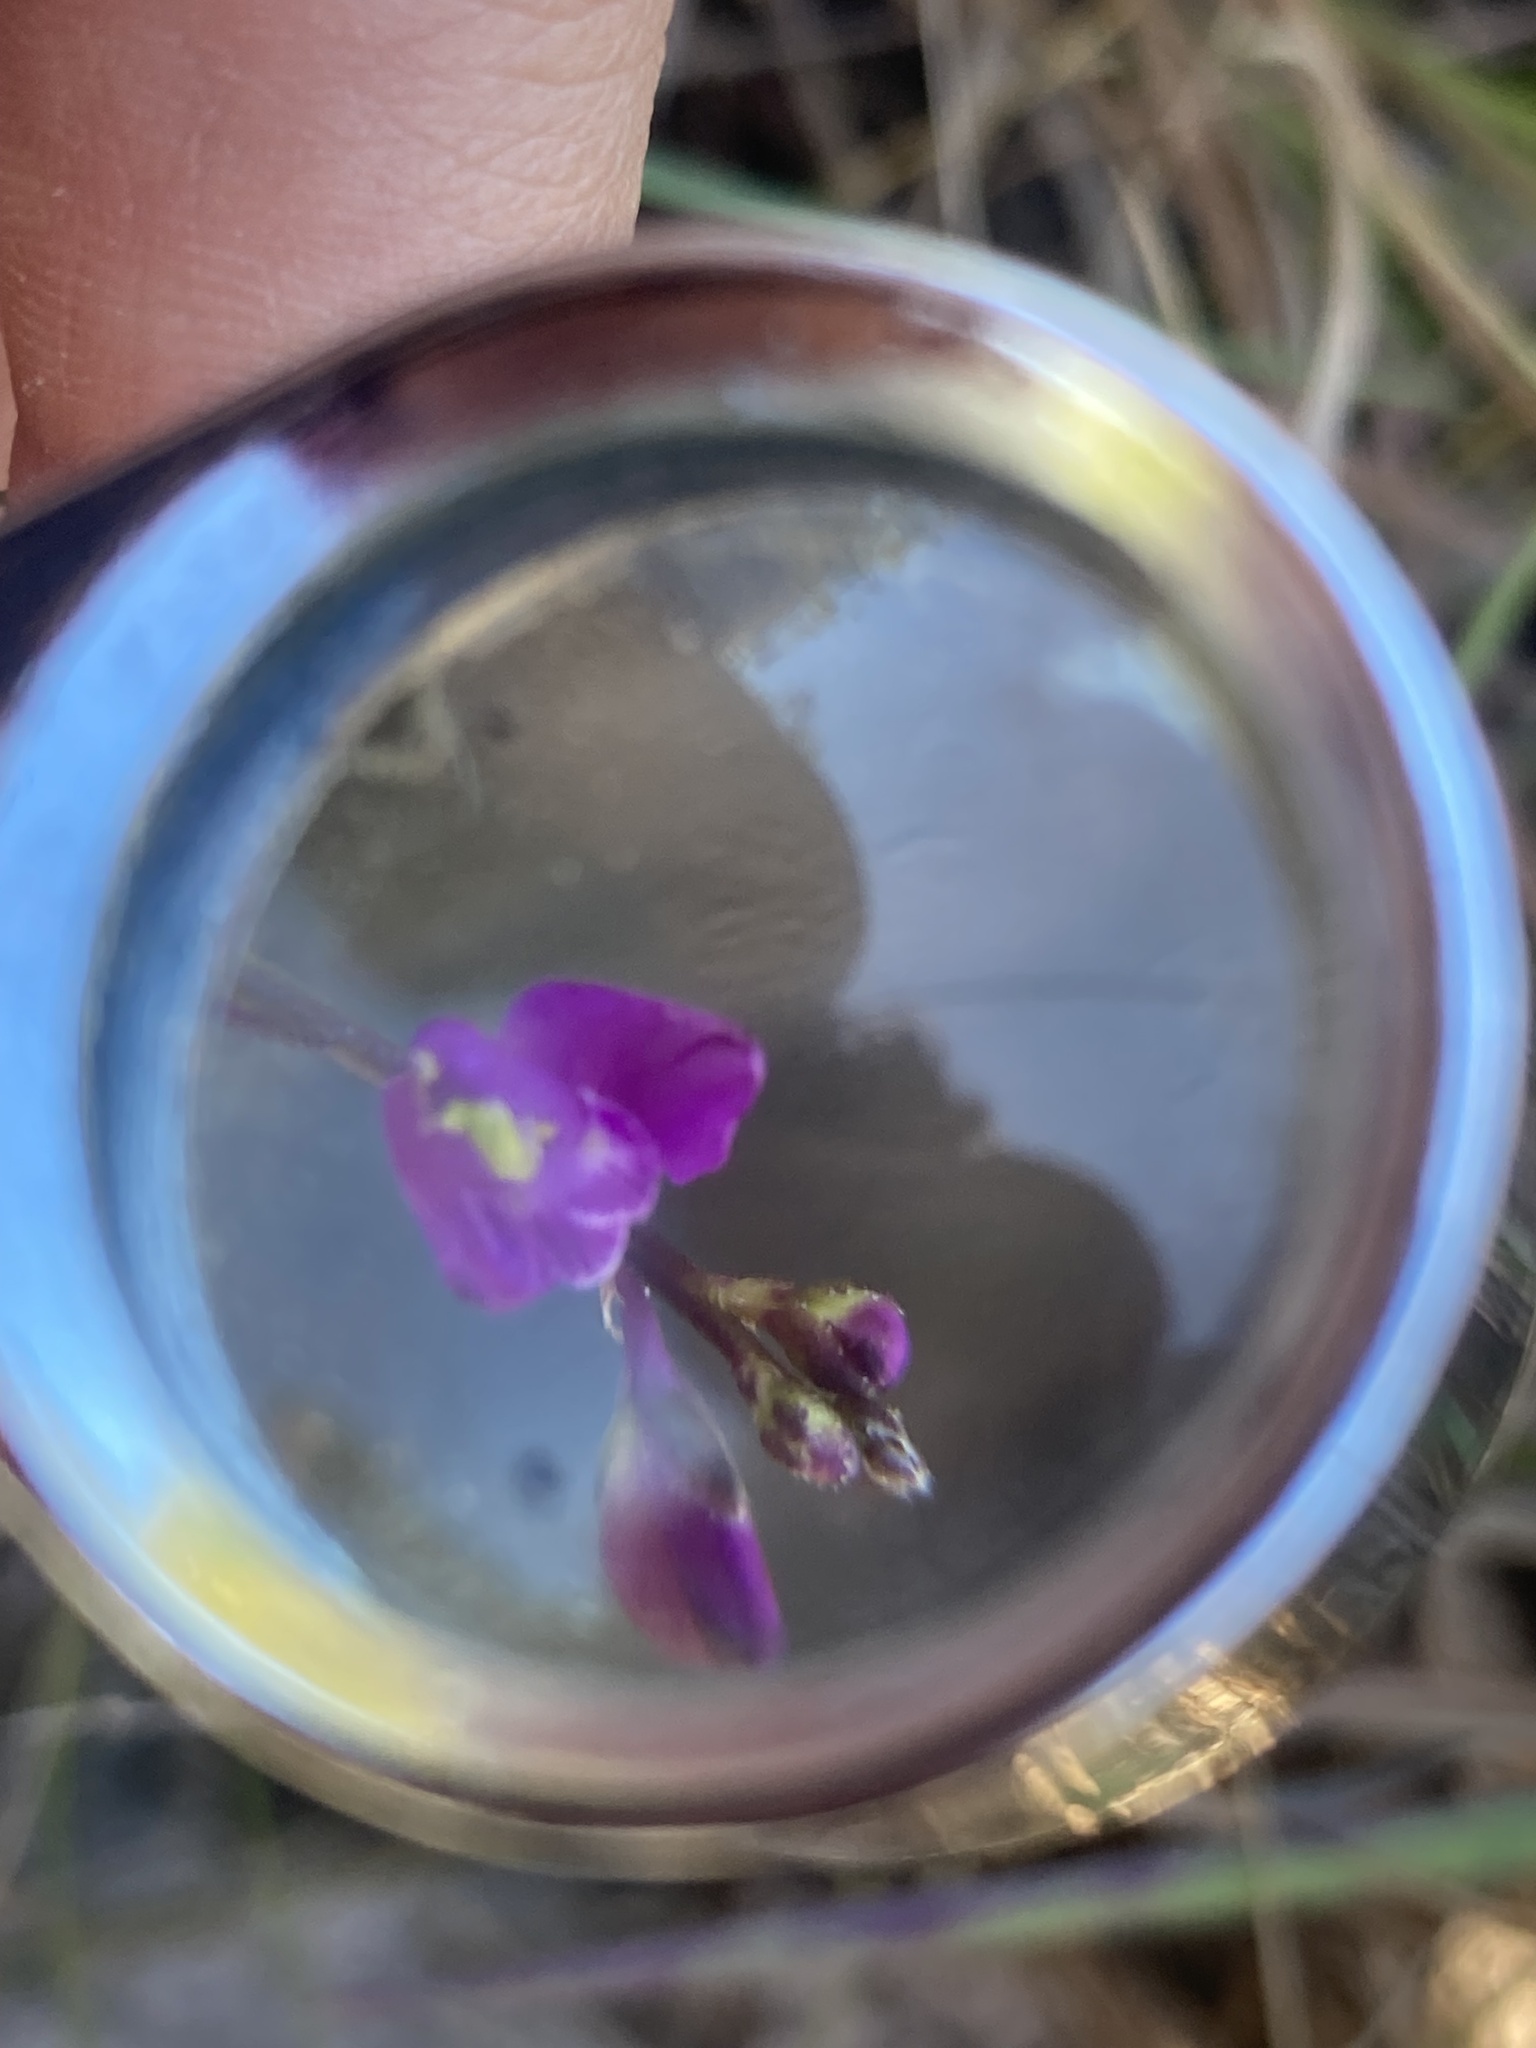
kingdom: Plantae
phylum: Tracheophyta
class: Magnoliopsida
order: Fabales
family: Polygalaceae
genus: Asemeia
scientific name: Asemeia grandiflora
